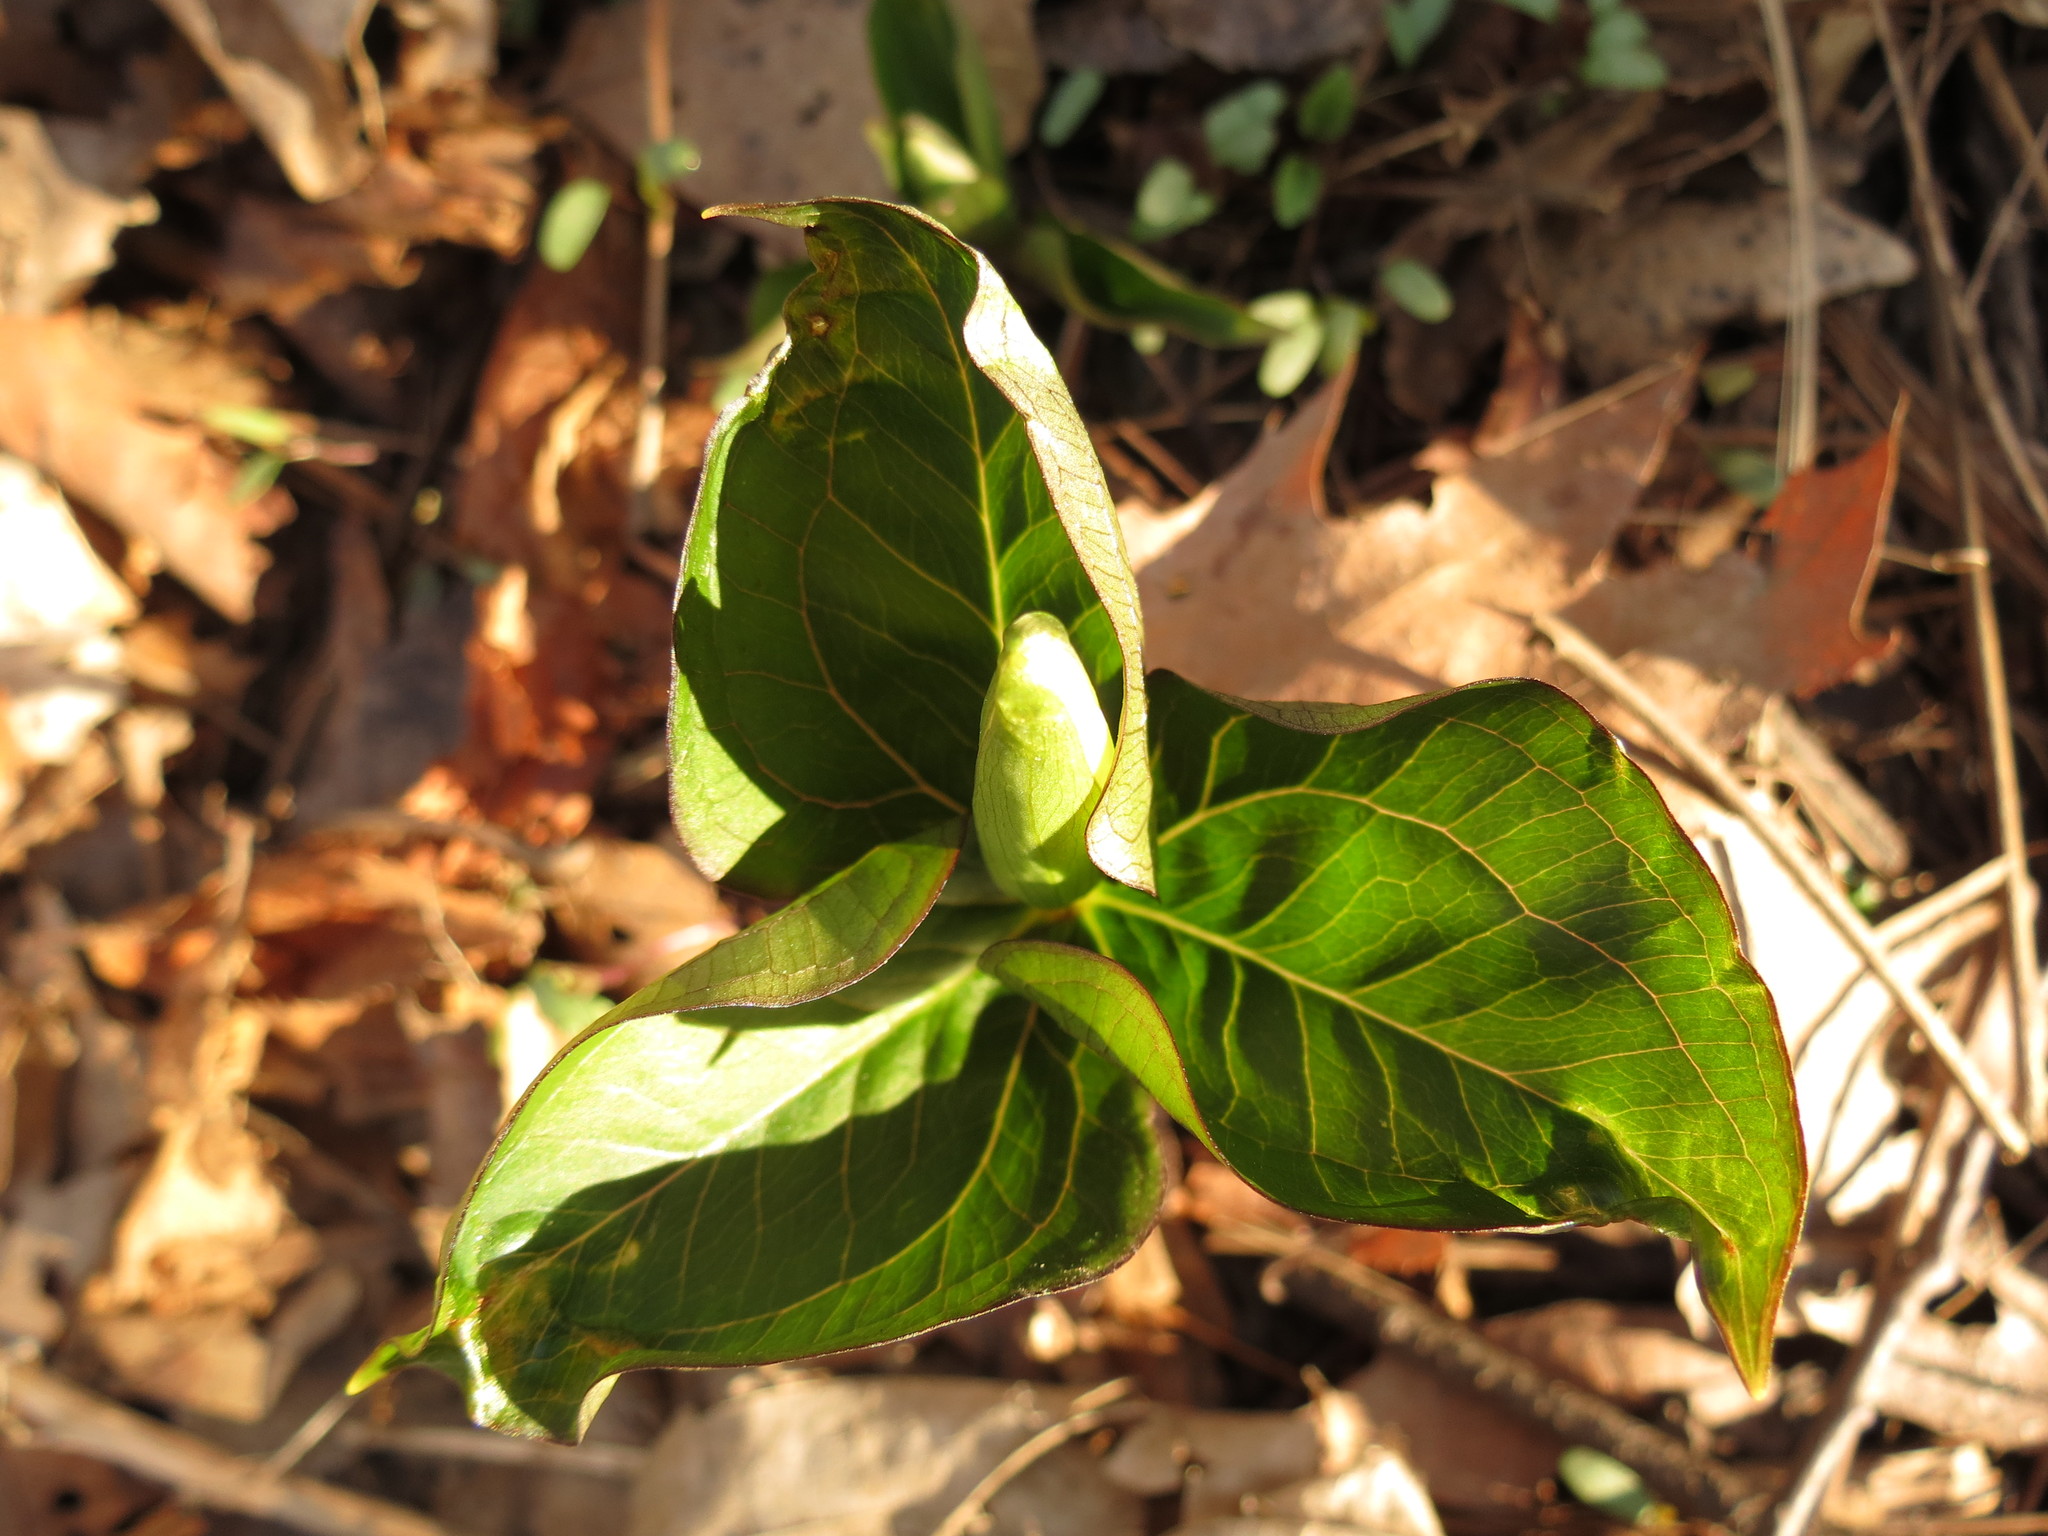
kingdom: Plantae
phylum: Tracheophyta
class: Liliopsida
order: Liliales
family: Melanthiaceae
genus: Trillium
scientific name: Trillium grandiflorum
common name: Great white trillium
